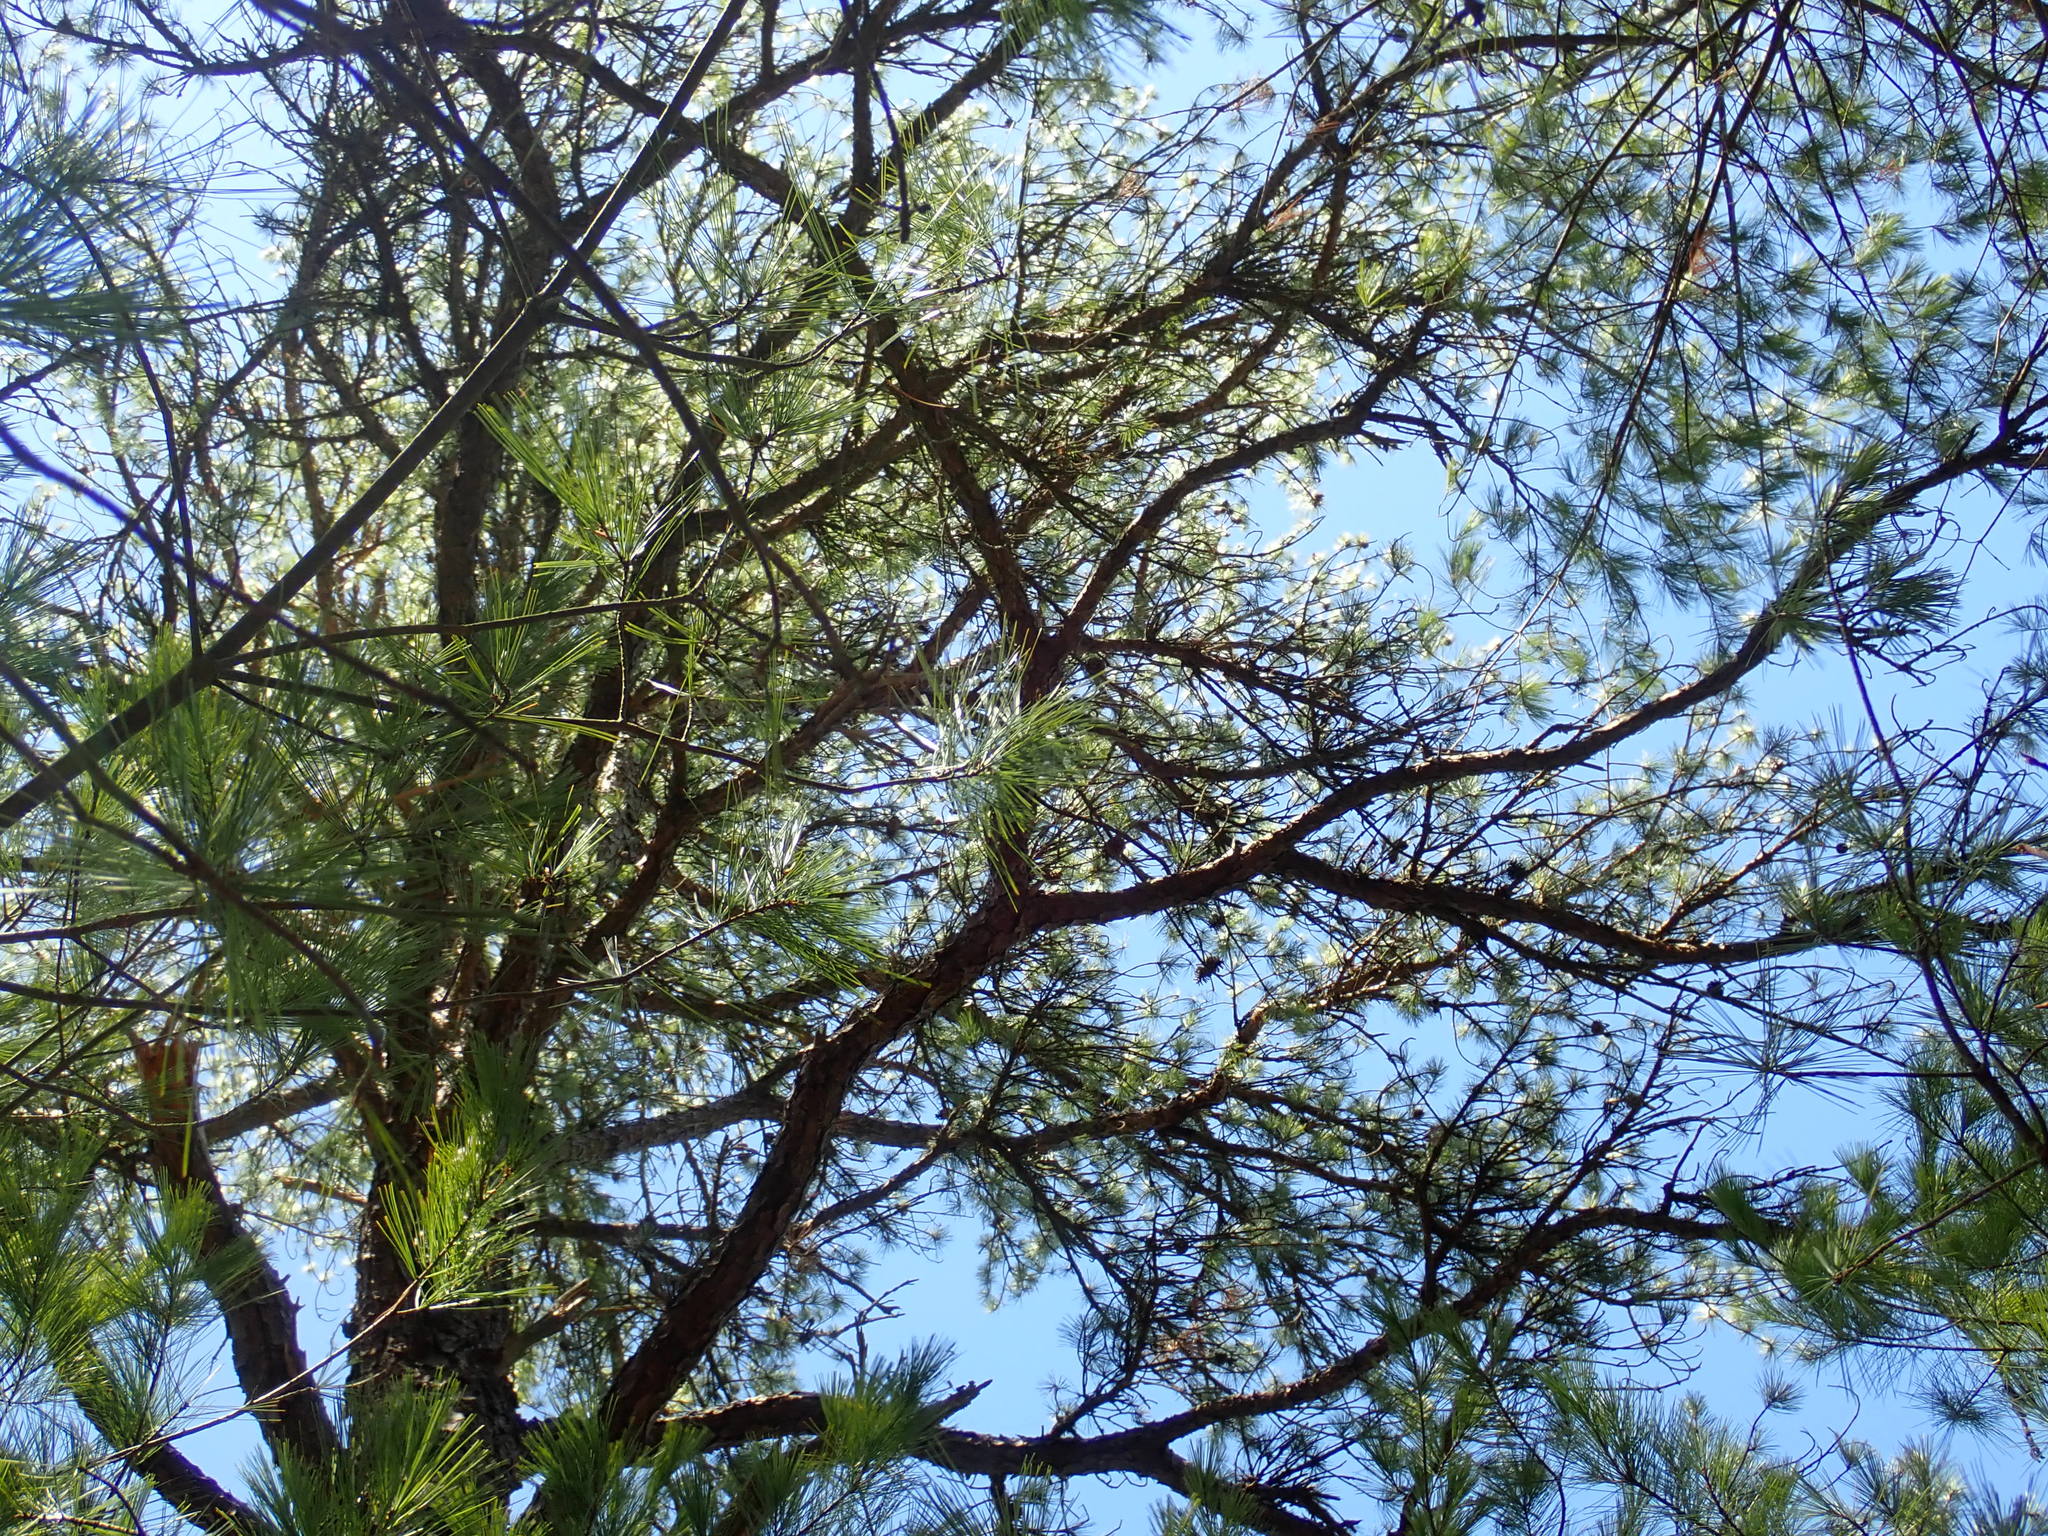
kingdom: Plantae
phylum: Tracheophyta
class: Pinopsida
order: Pinales
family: Pinaceae
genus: Pinus
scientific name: Pinus rigida
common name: Pitch pine
